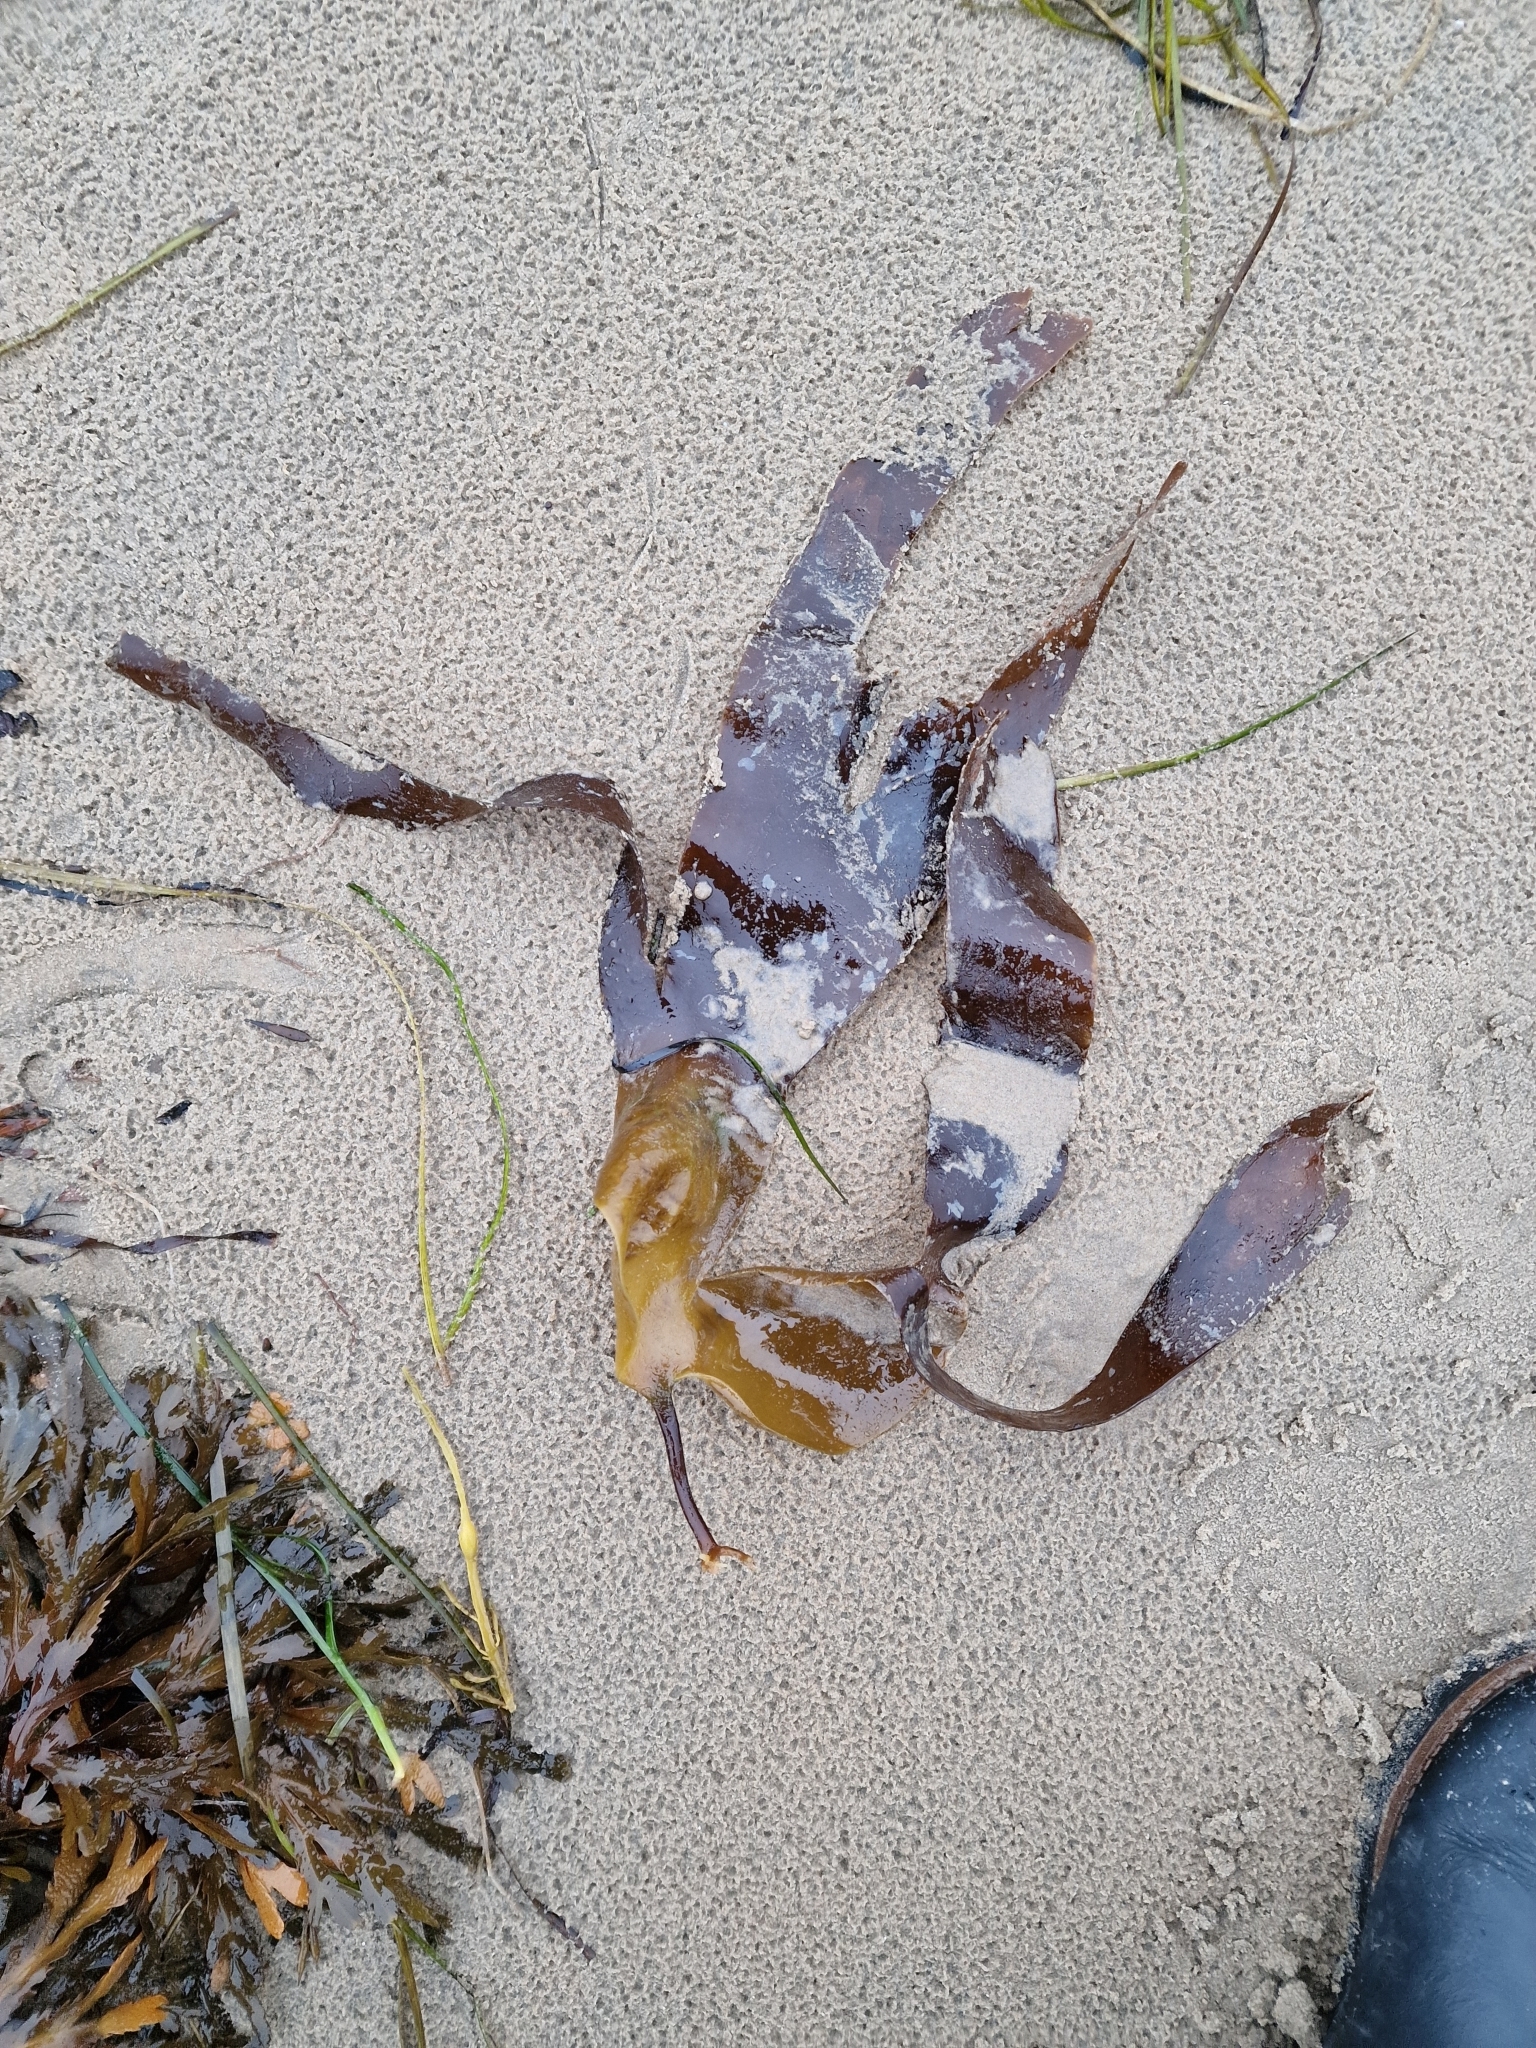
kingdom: Chromista
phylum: Ochrophyta
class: Phaeophyceae
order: Laminariales
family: Laminariaceae
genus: Laminaria
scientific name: Laminaria digitata
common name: Oarweed
